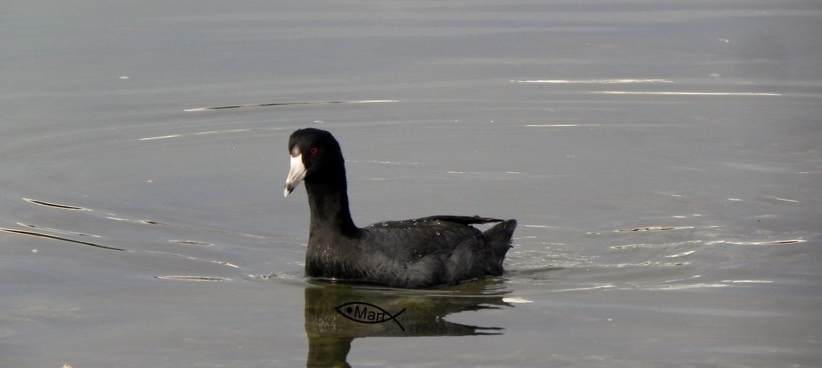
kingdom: Animalia
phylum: Chordata
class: Aves
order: Gruiformes
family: Rallidae
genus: Fulica
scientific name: Fulica americana
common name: American coot
